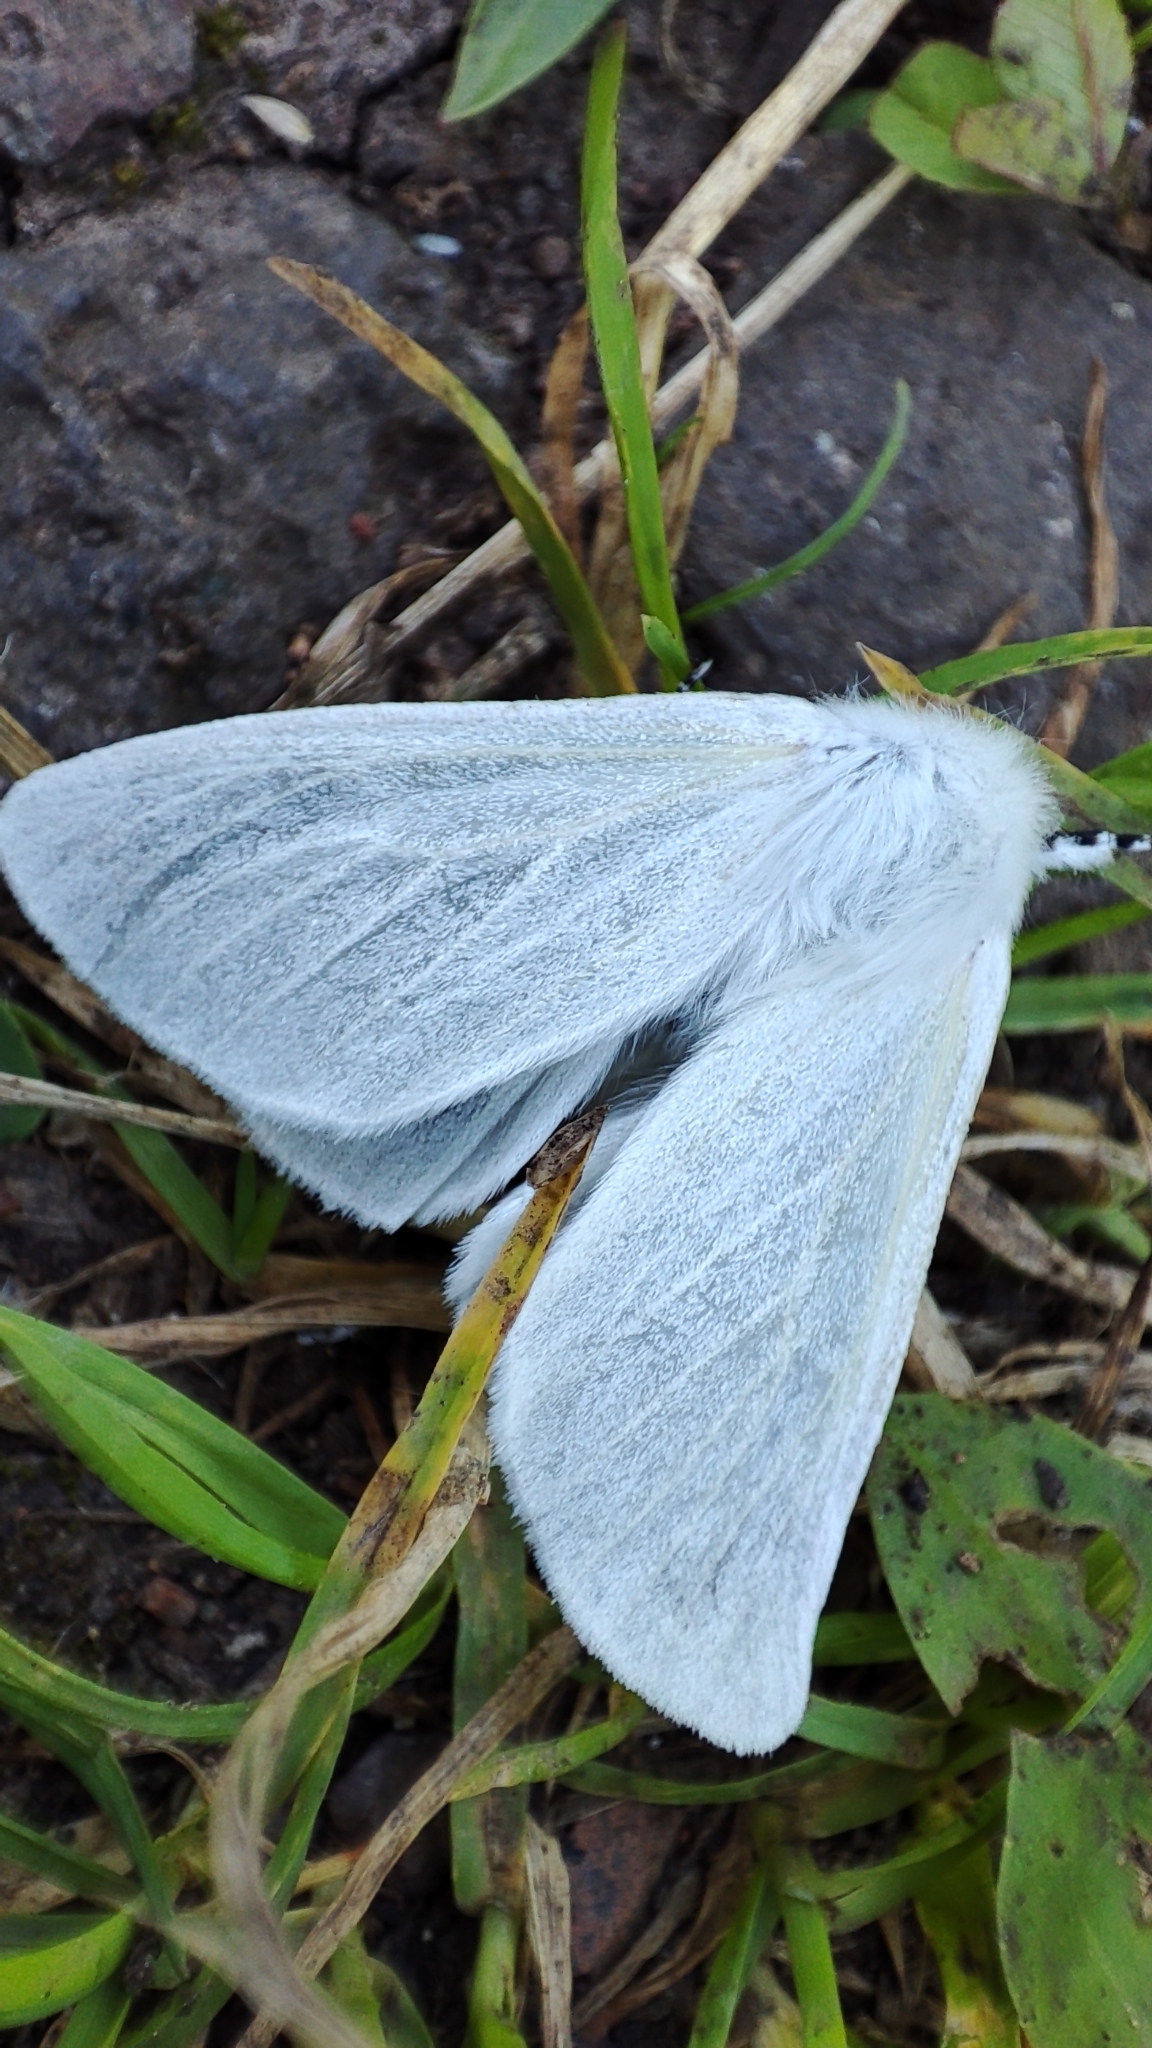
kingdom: Animalia
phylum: Arthropoda
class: Insecta
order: Lepidoptera
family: Erebidae
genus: Leucoma
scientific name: Leucoma salicis
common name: White satin moth
